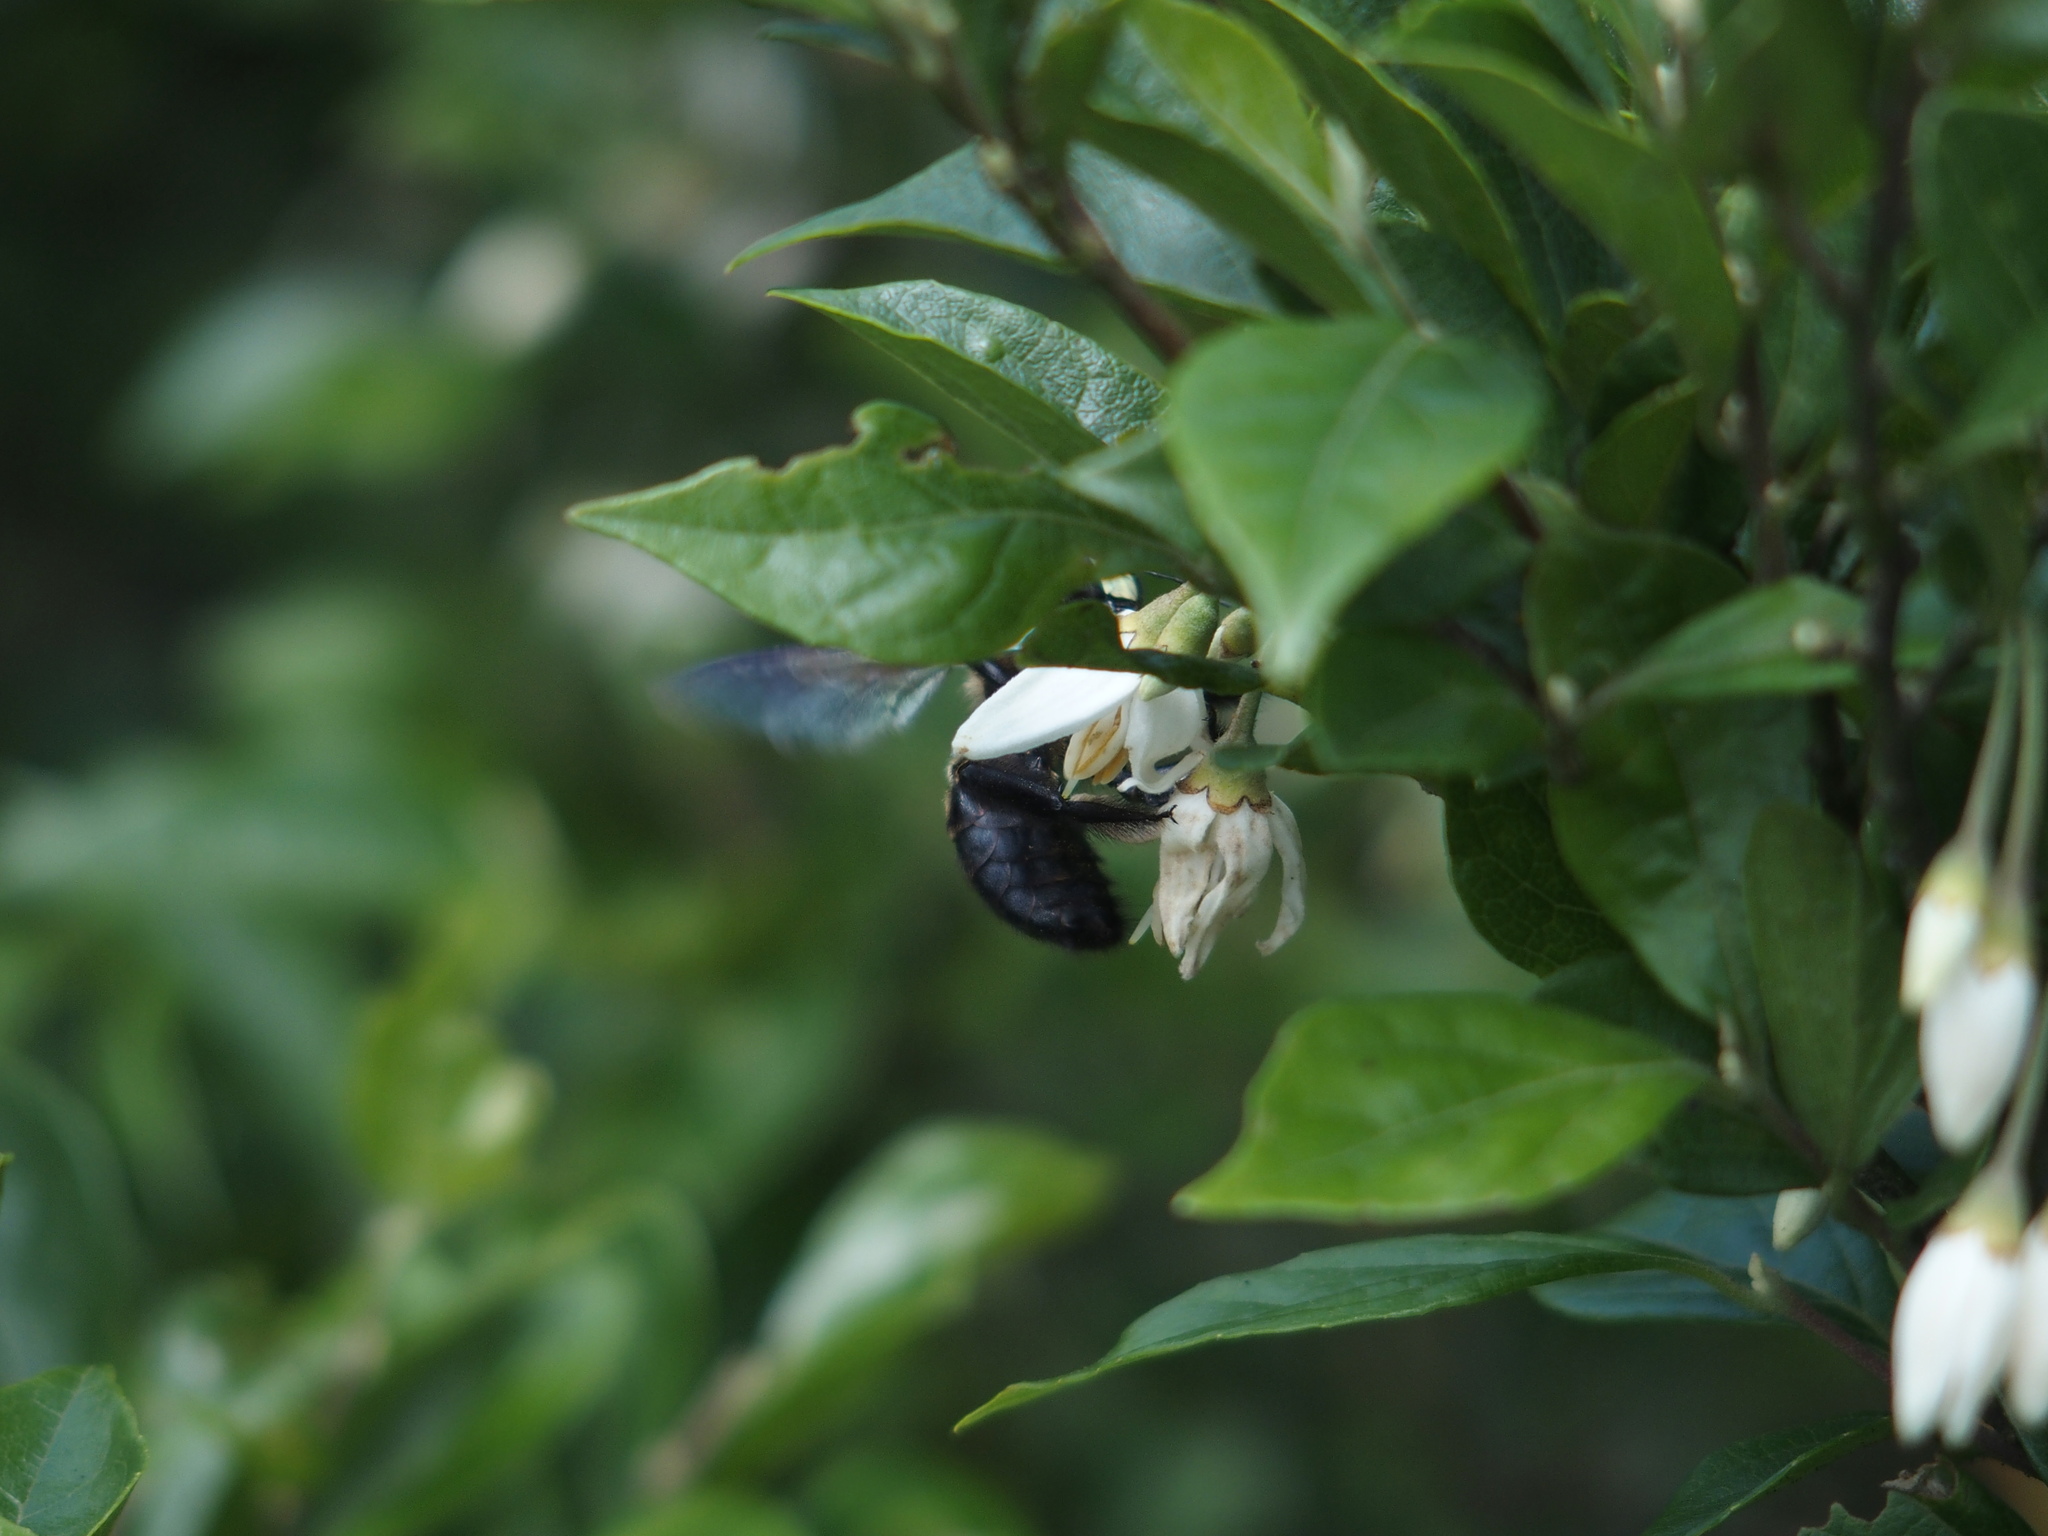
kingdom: Animalia
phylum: Arthropoda
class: Insecta
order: Hymenoptera
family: Apidae
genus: Xylocopa
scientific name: Xylocopa tranquebarorum
